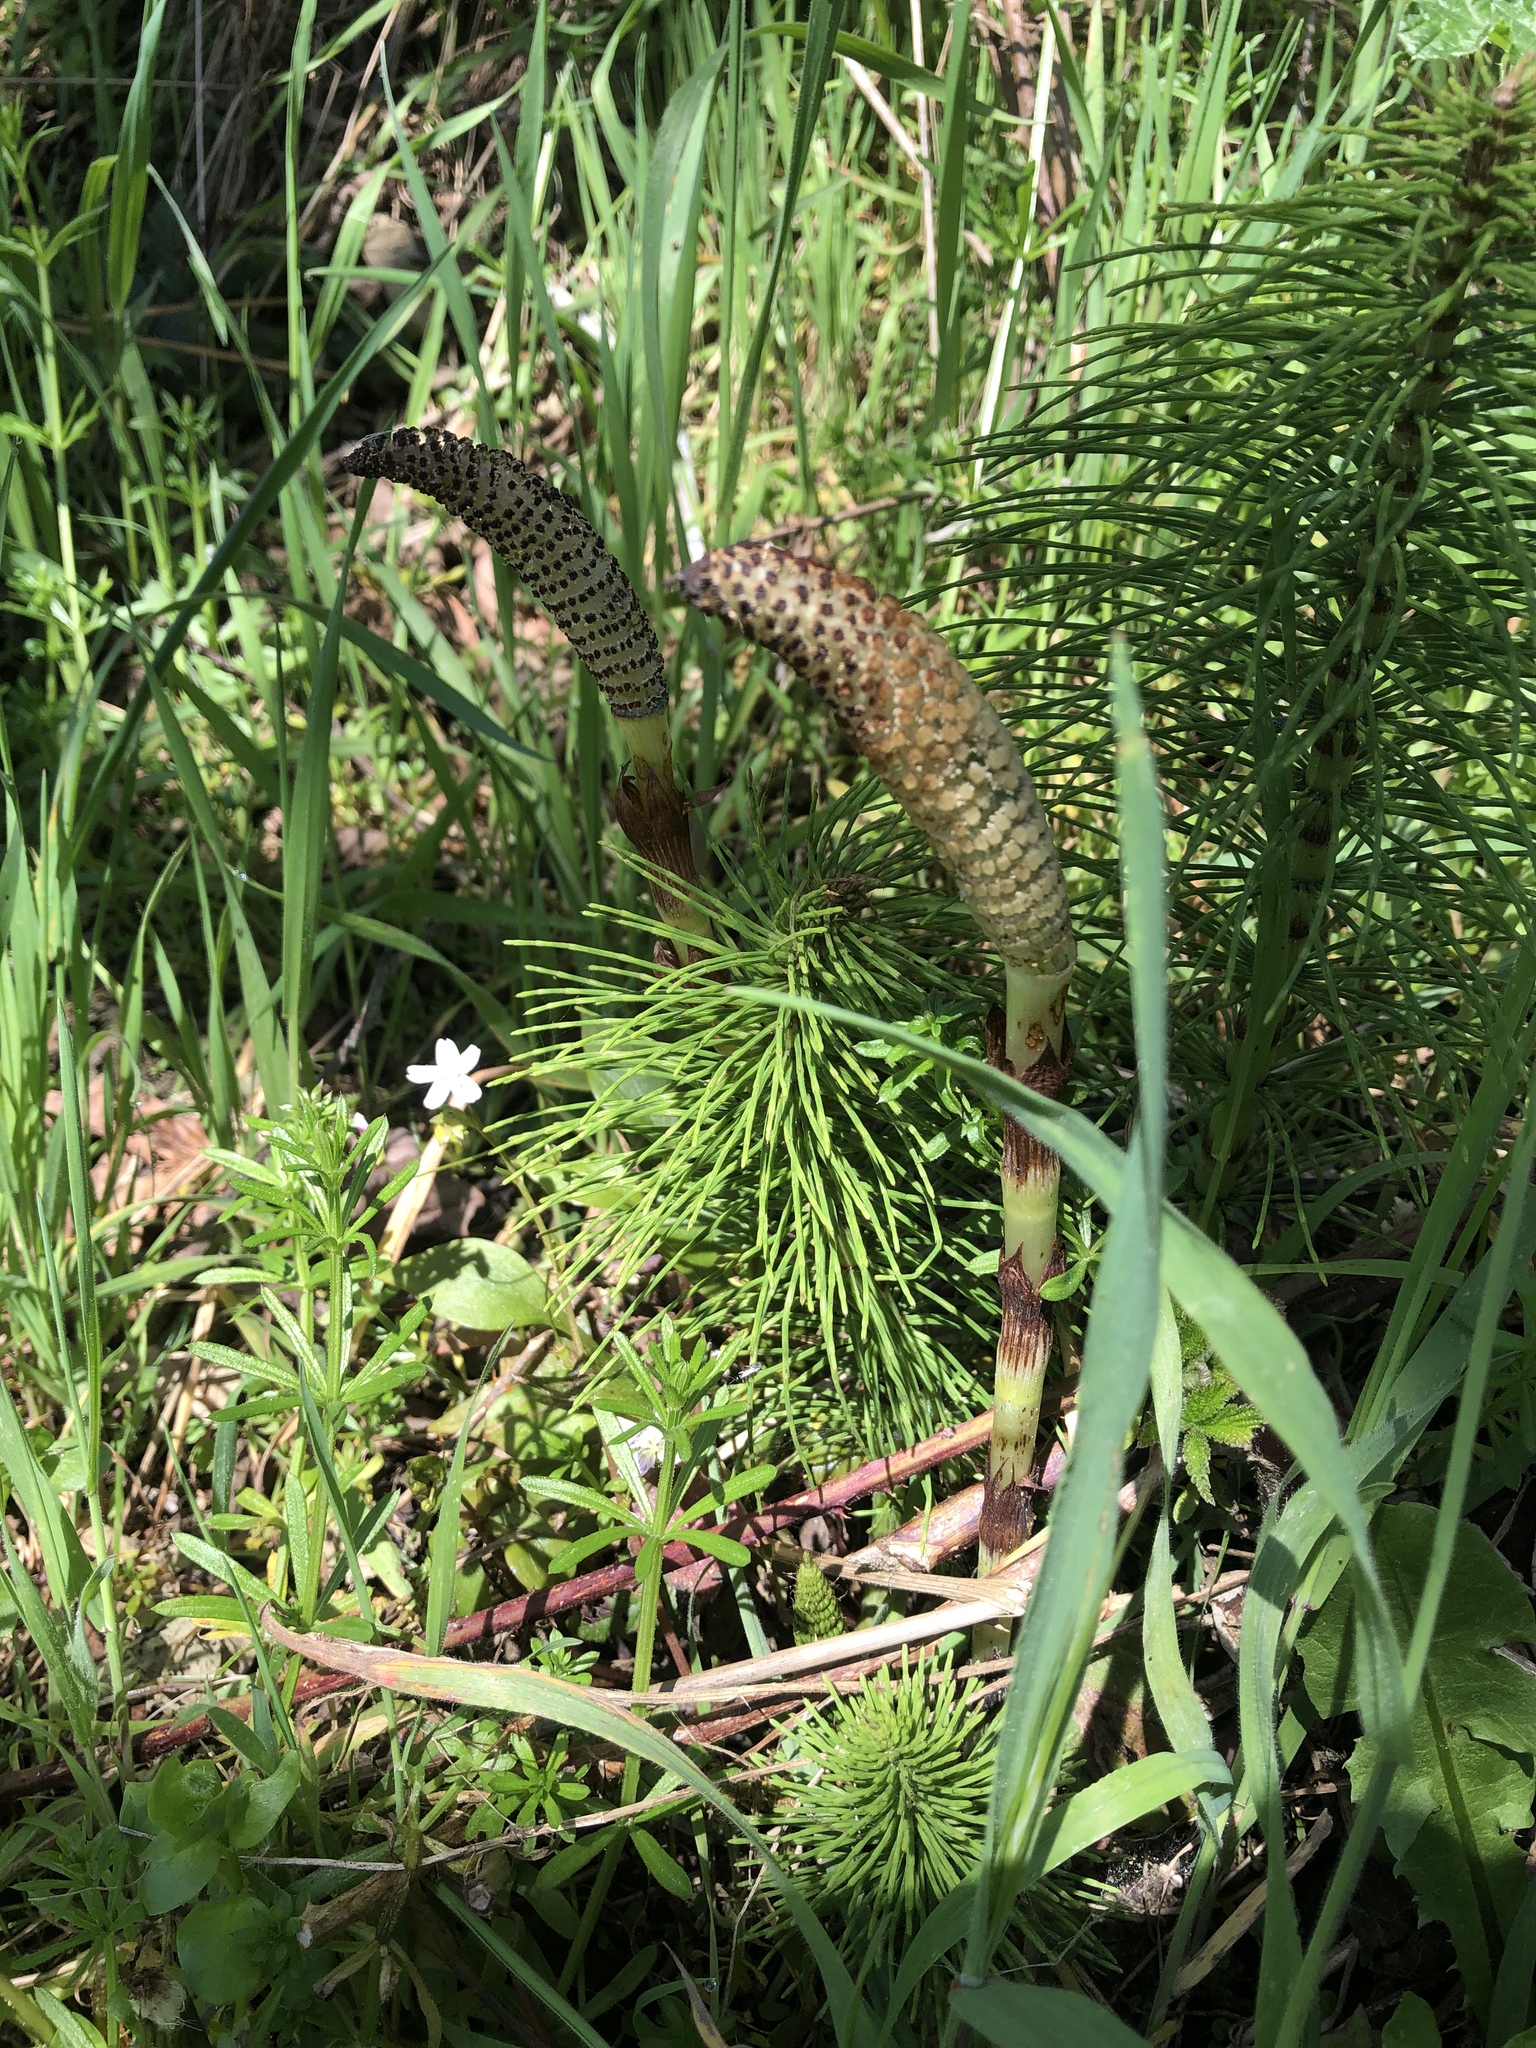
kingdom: Plantae
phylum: Tracheophyta
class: Polypodiopsida
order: Equisetales
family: Equisetaceae
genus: Equisetum
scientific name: Equisetum braunii
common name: Braun's horsetail
